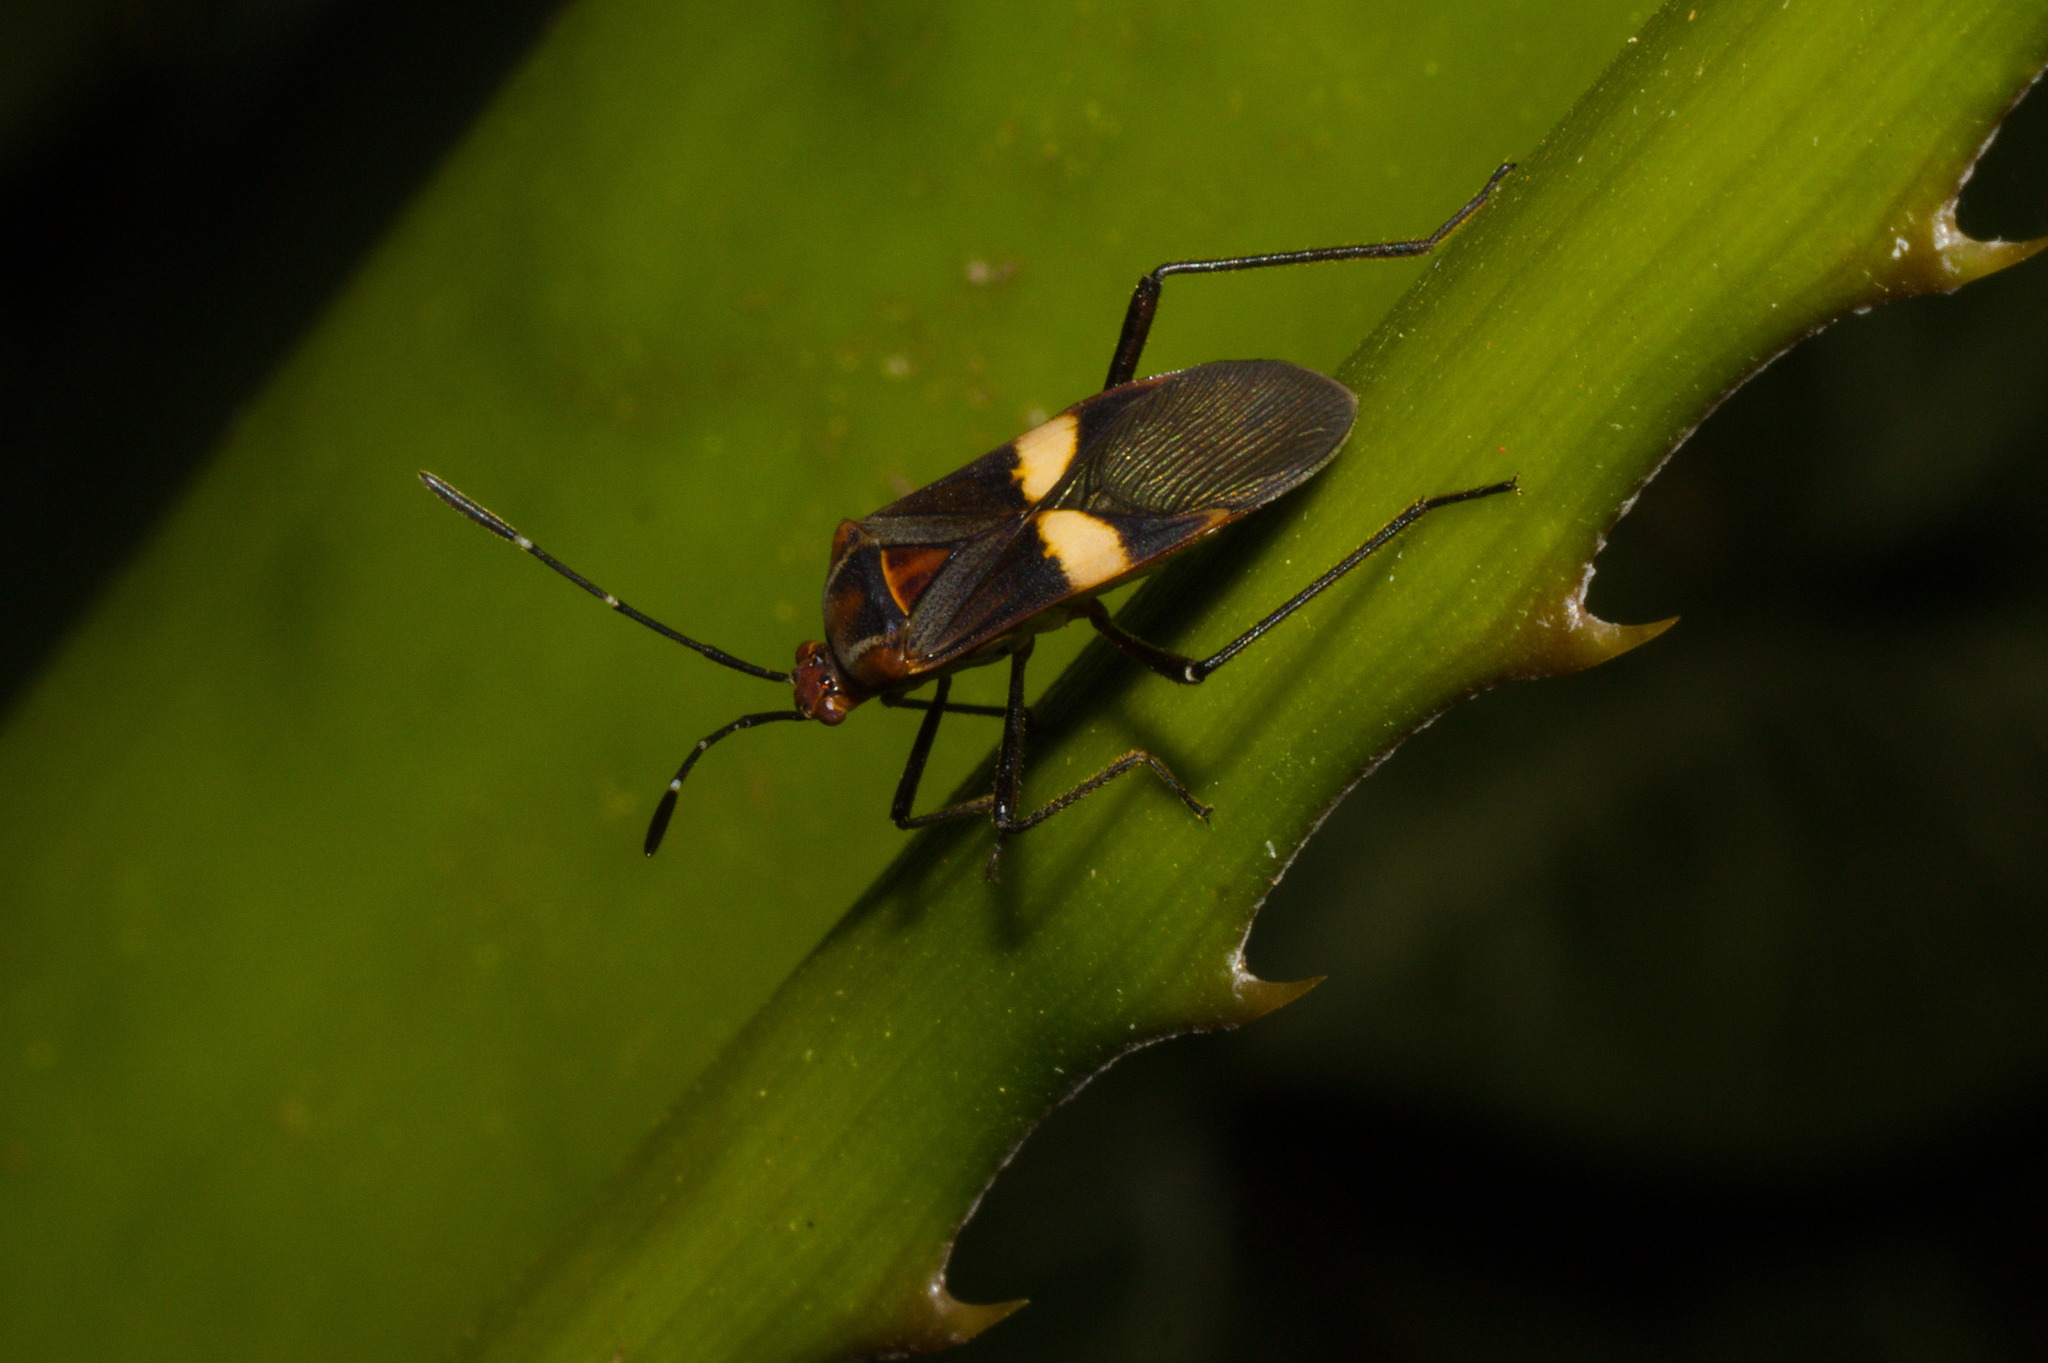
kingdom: Animalia
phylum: Arthropoda
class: Insecta
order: Hemiptera
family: Coreidae
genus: Hypselonotus
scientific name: Hypselonotus interruptus
